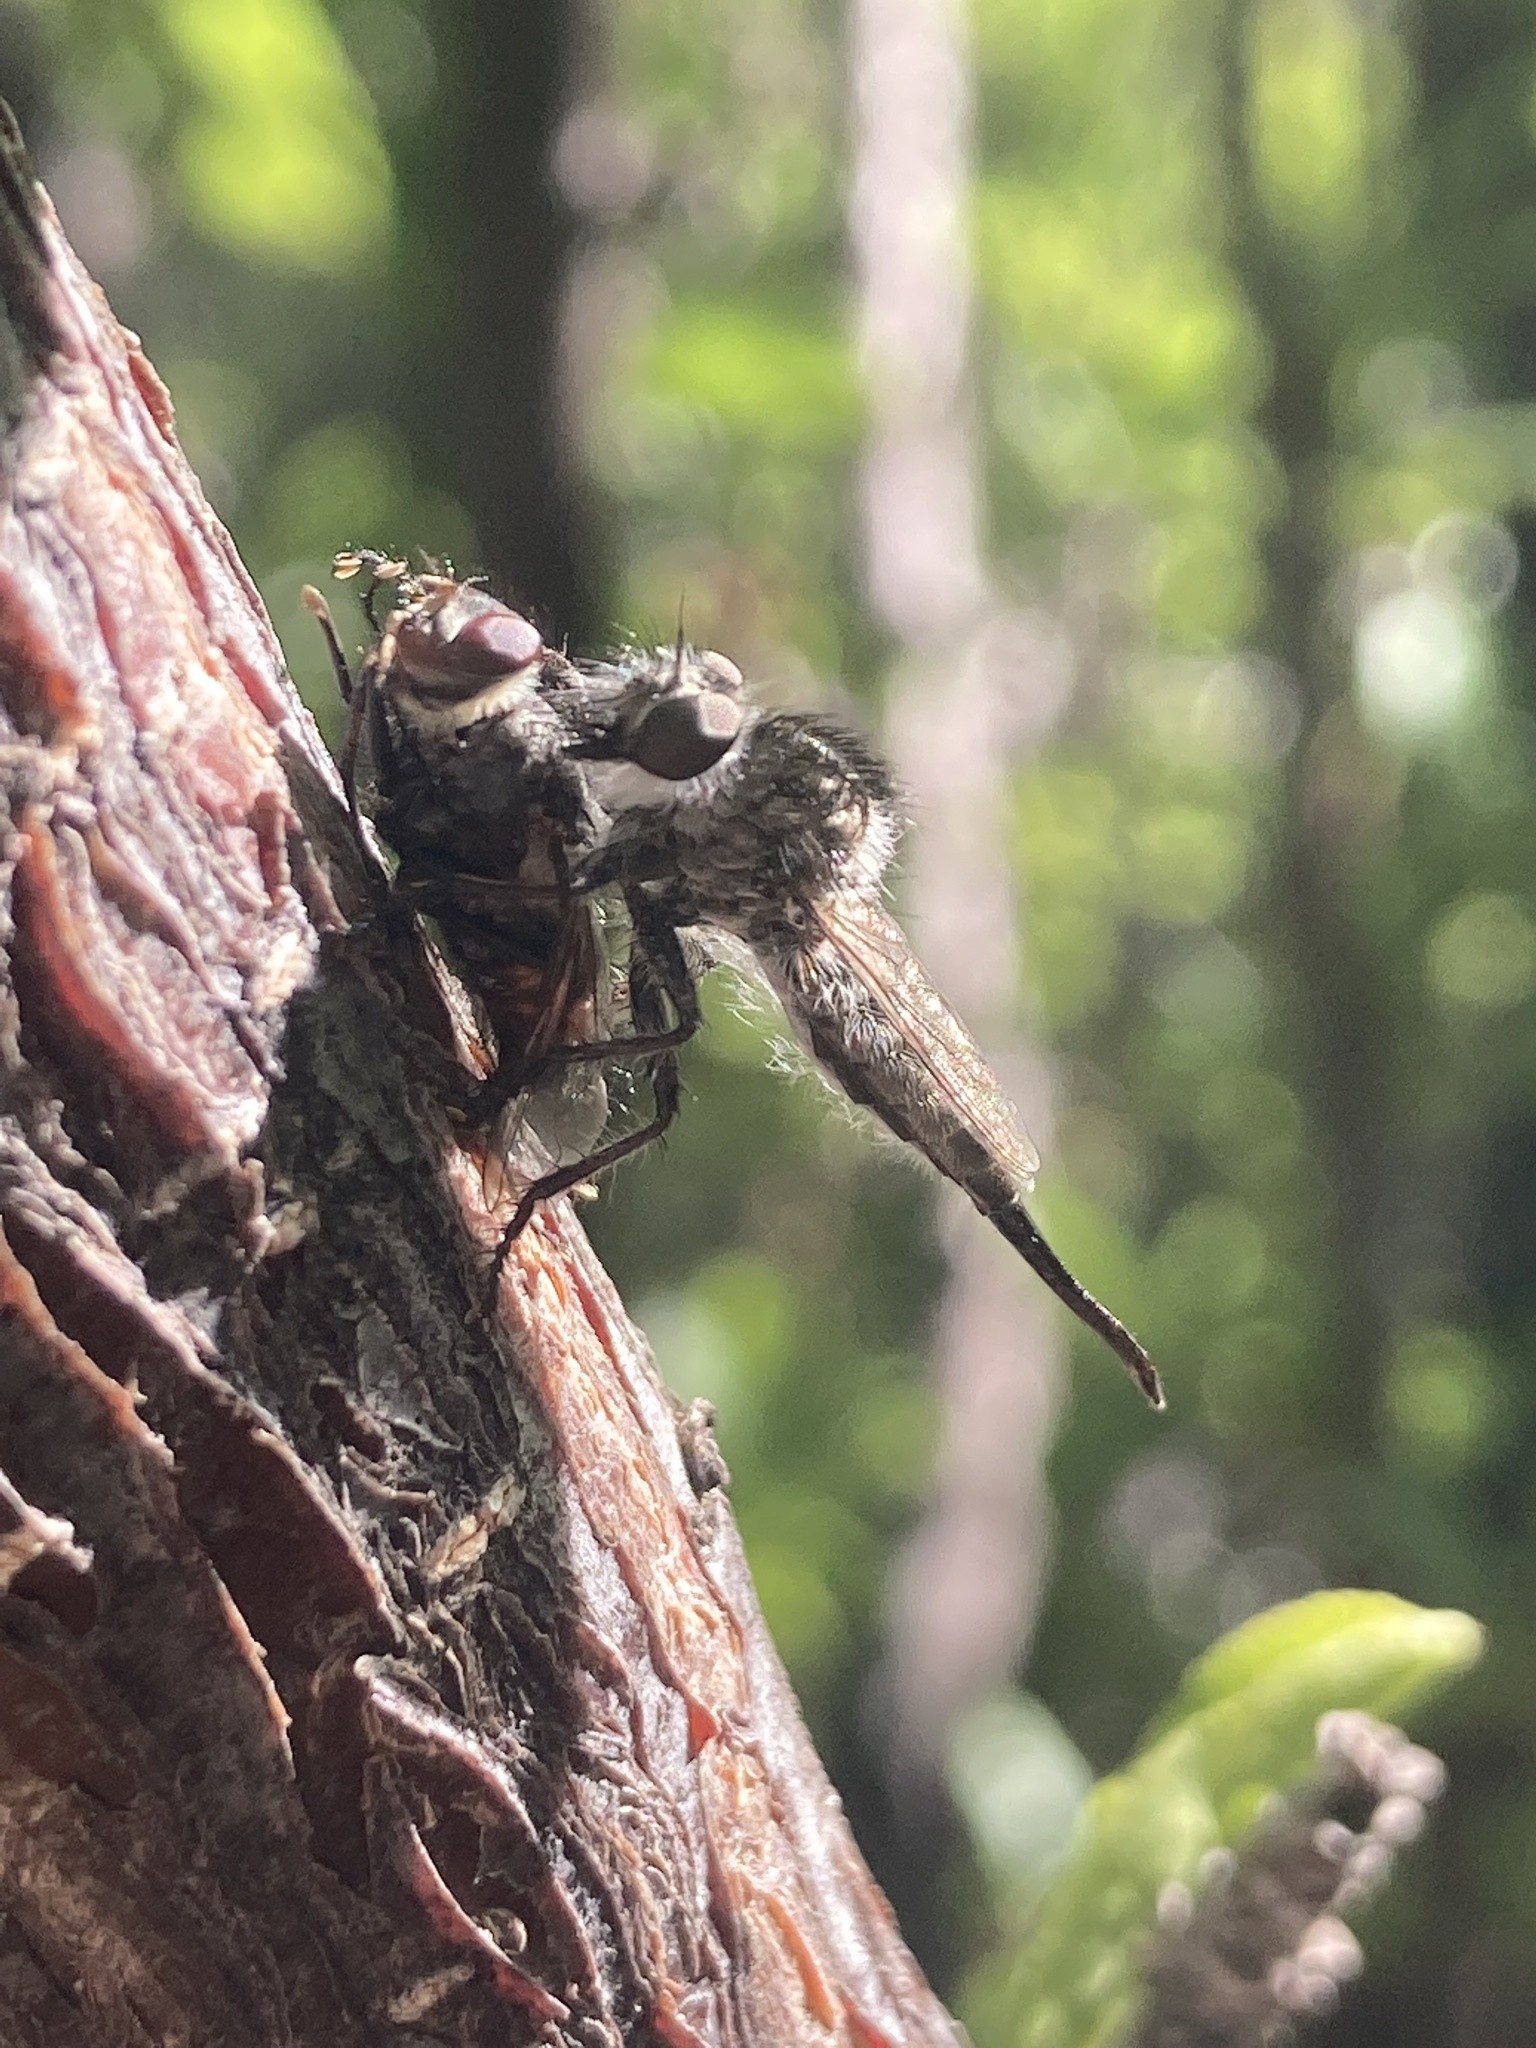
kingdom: Animalia
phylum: Arthropoda
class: Insecta
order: Diptera
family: Asilidae
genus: Efferia
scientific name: Efferia
